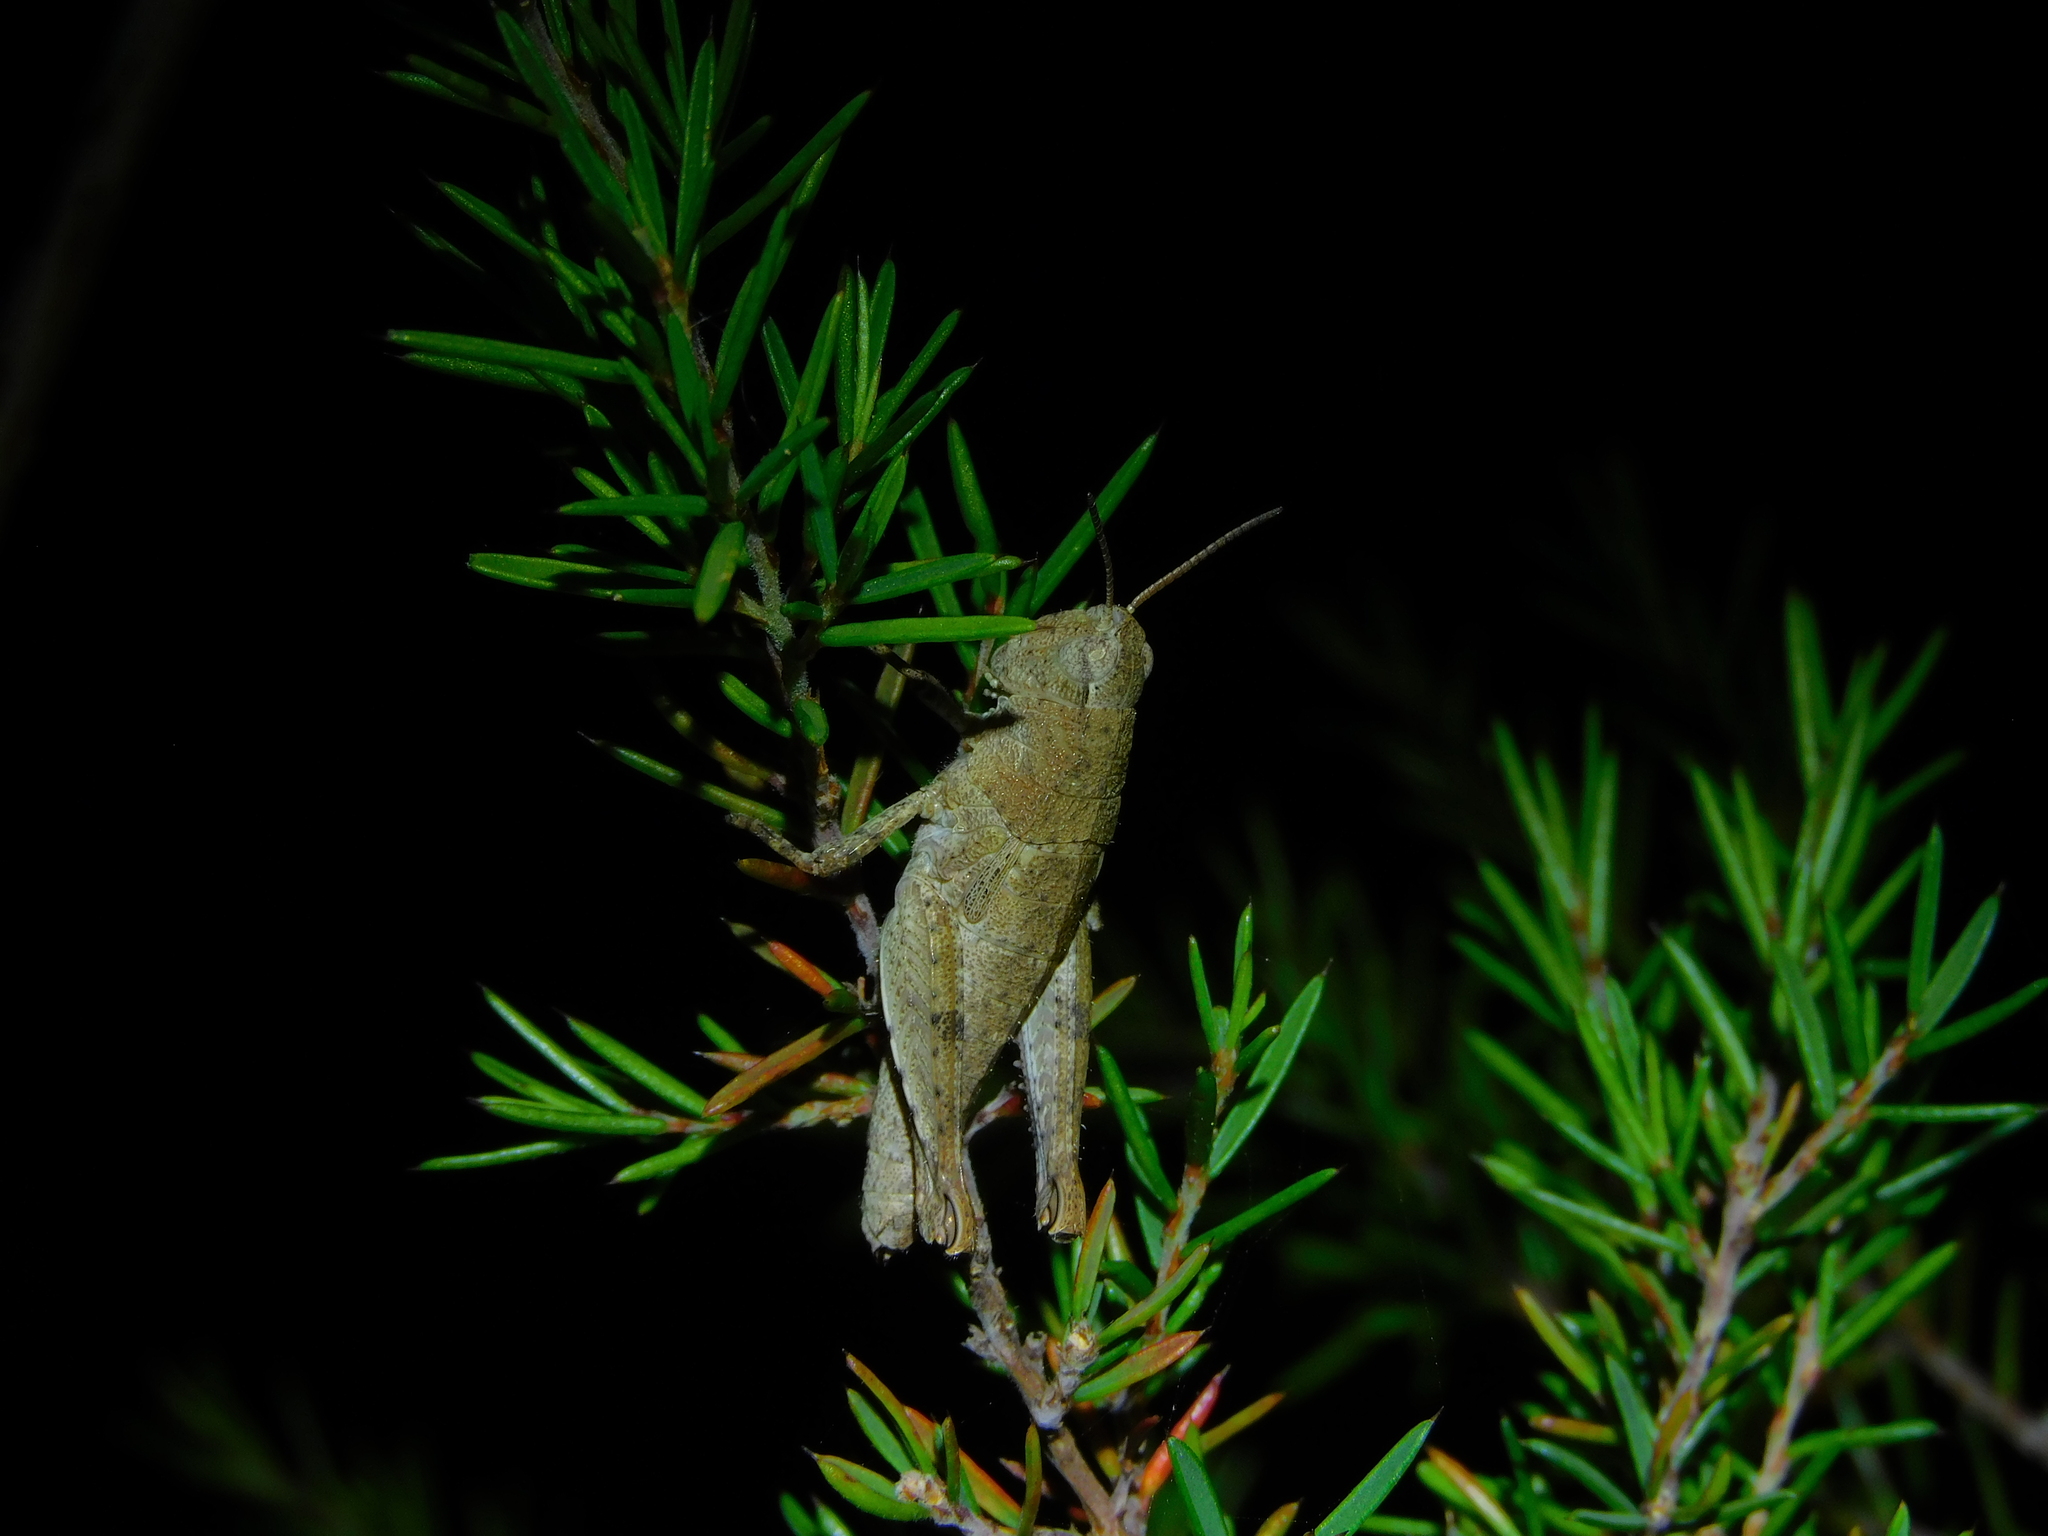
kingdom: Animalia
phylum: Arthropoda
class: Insecta
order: Orthoptera
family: Acrididae
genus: Tasmaniacris
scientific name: Tasmaniacris tasmaniensis
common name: Tasmanian grasshopper
